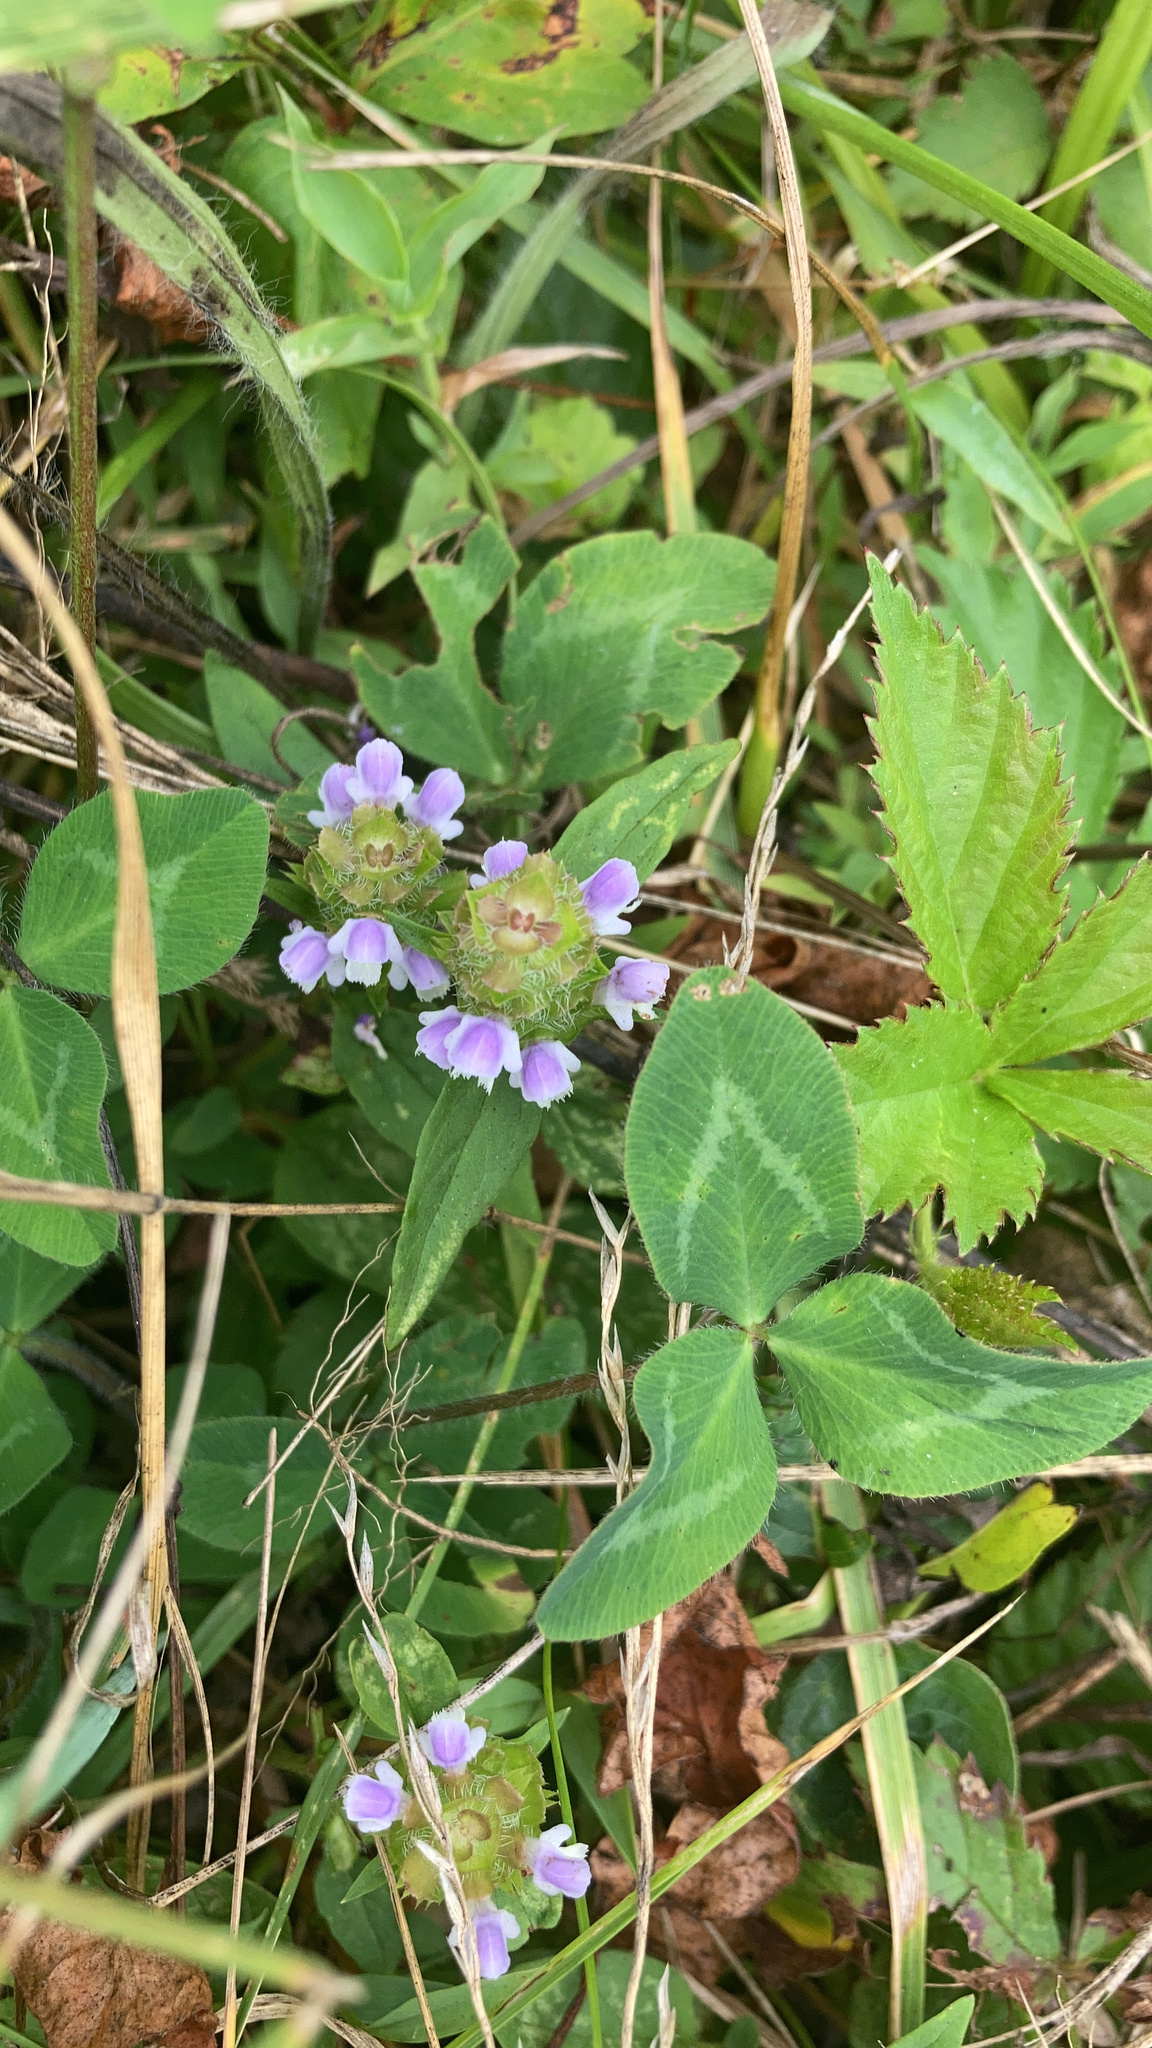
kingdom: Plantae
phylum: Tracheophyta
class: Magnoliopsida
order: Lamiales
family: Lamiaceae
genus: Prunella
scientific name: Prunella vulgaris
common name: Heal-all
